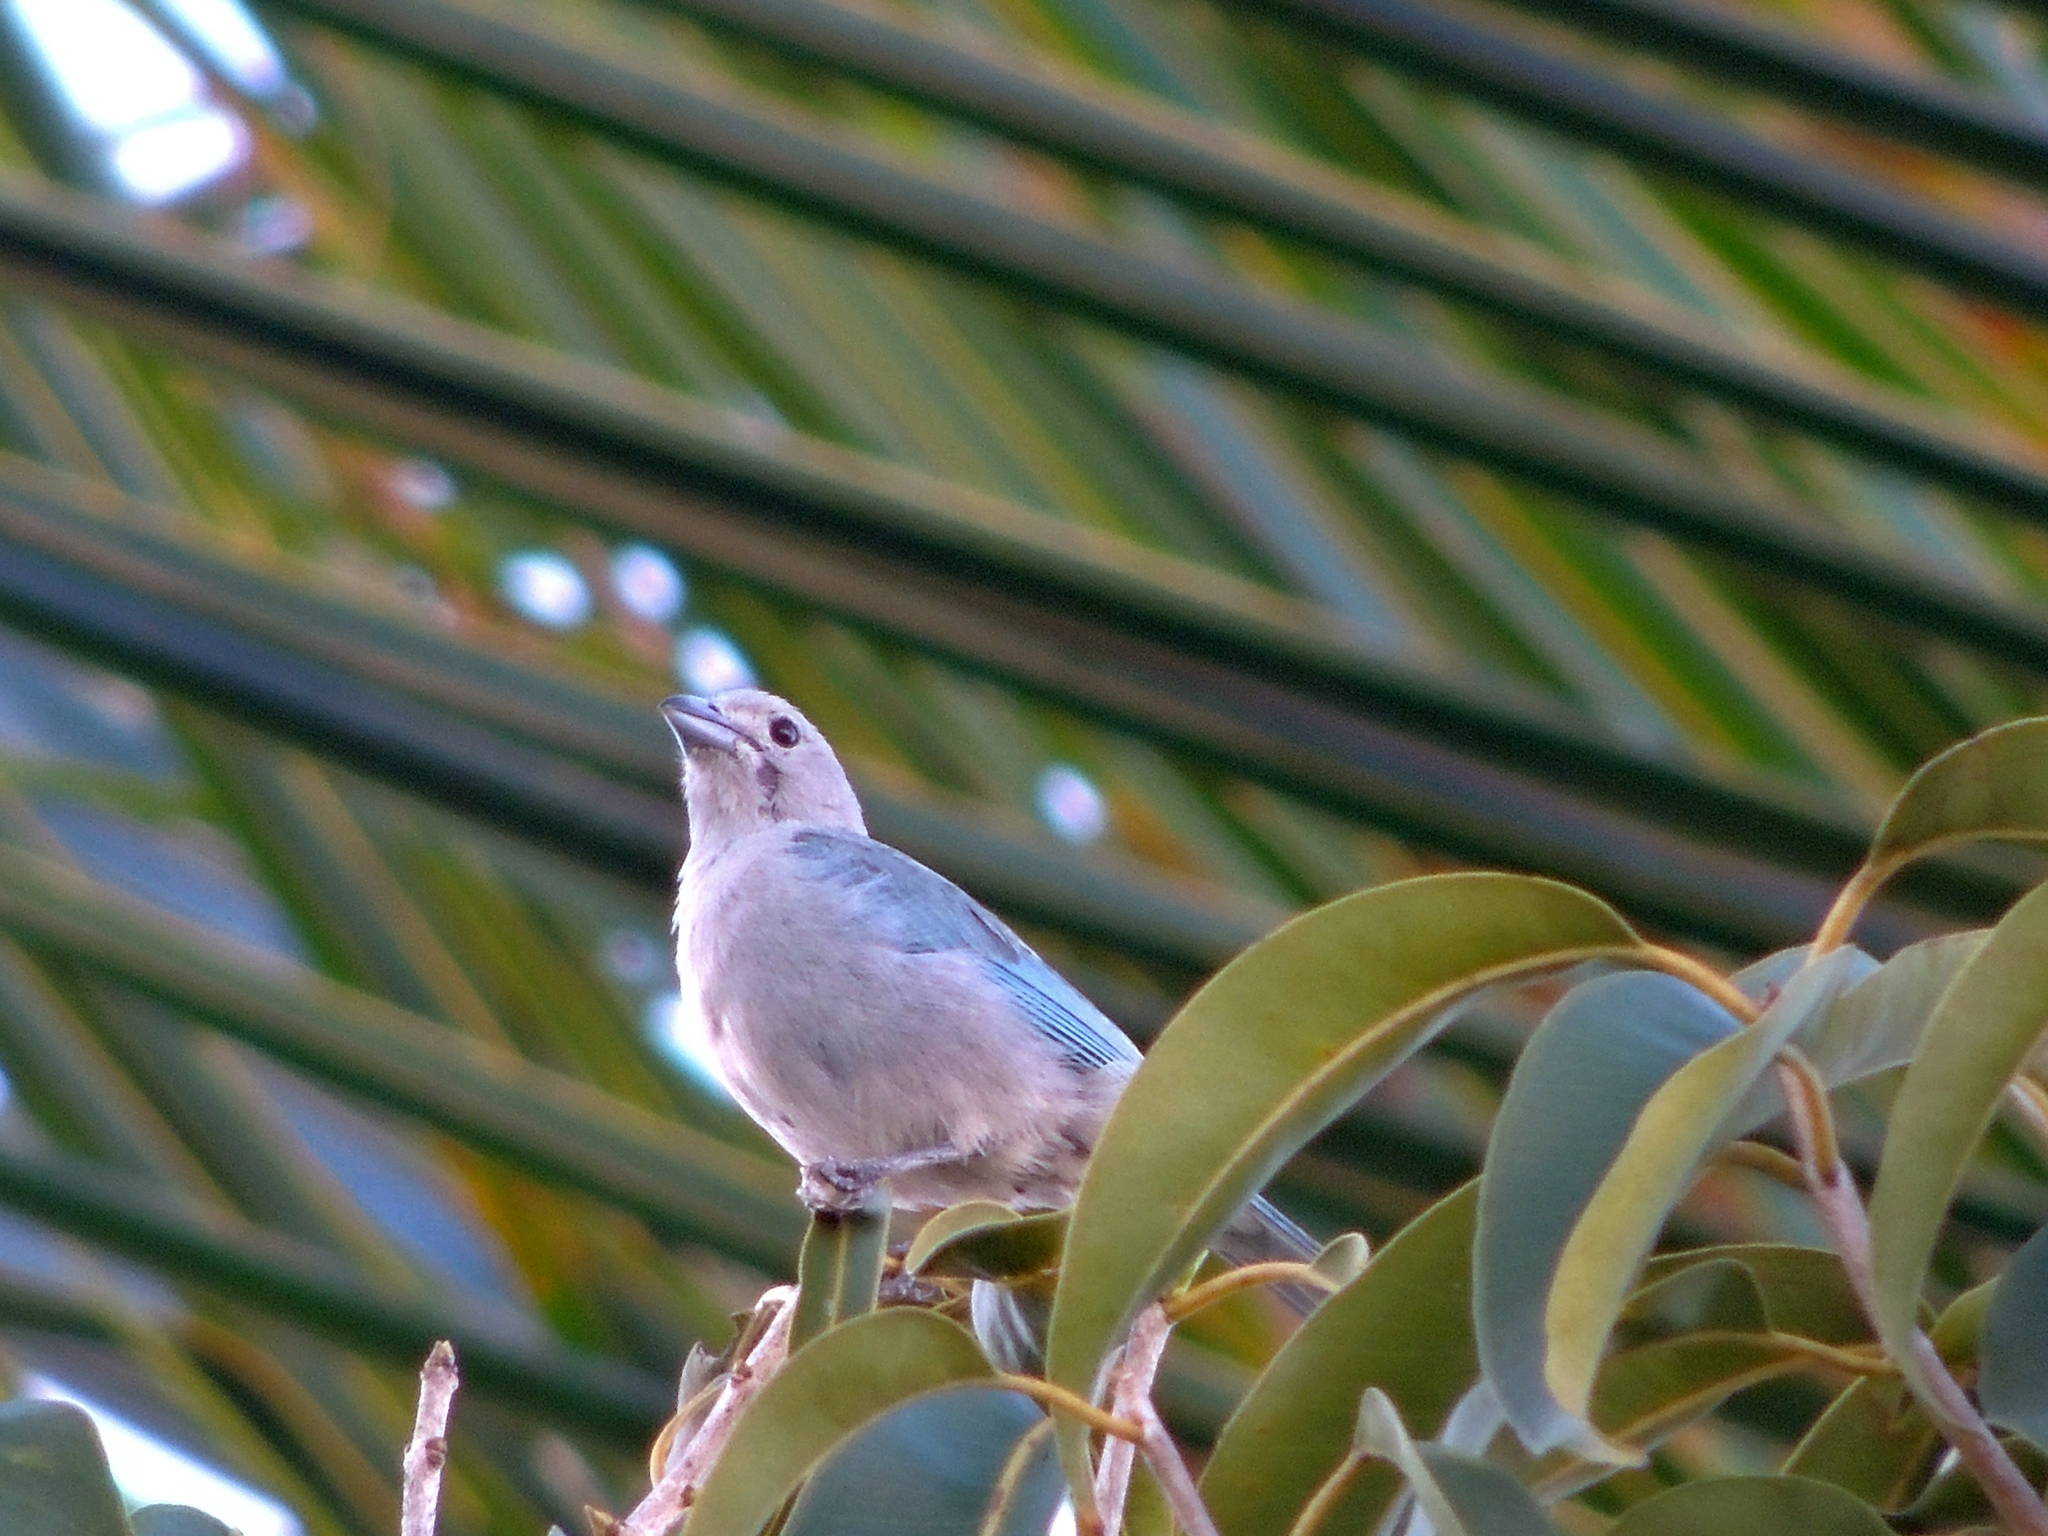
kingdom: Animalia
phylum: Chordata
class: Aves
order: Passeriformes
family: Thraupidae
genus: Thraupis
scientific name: Thraupis sayaca
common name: Sayaca tanager
